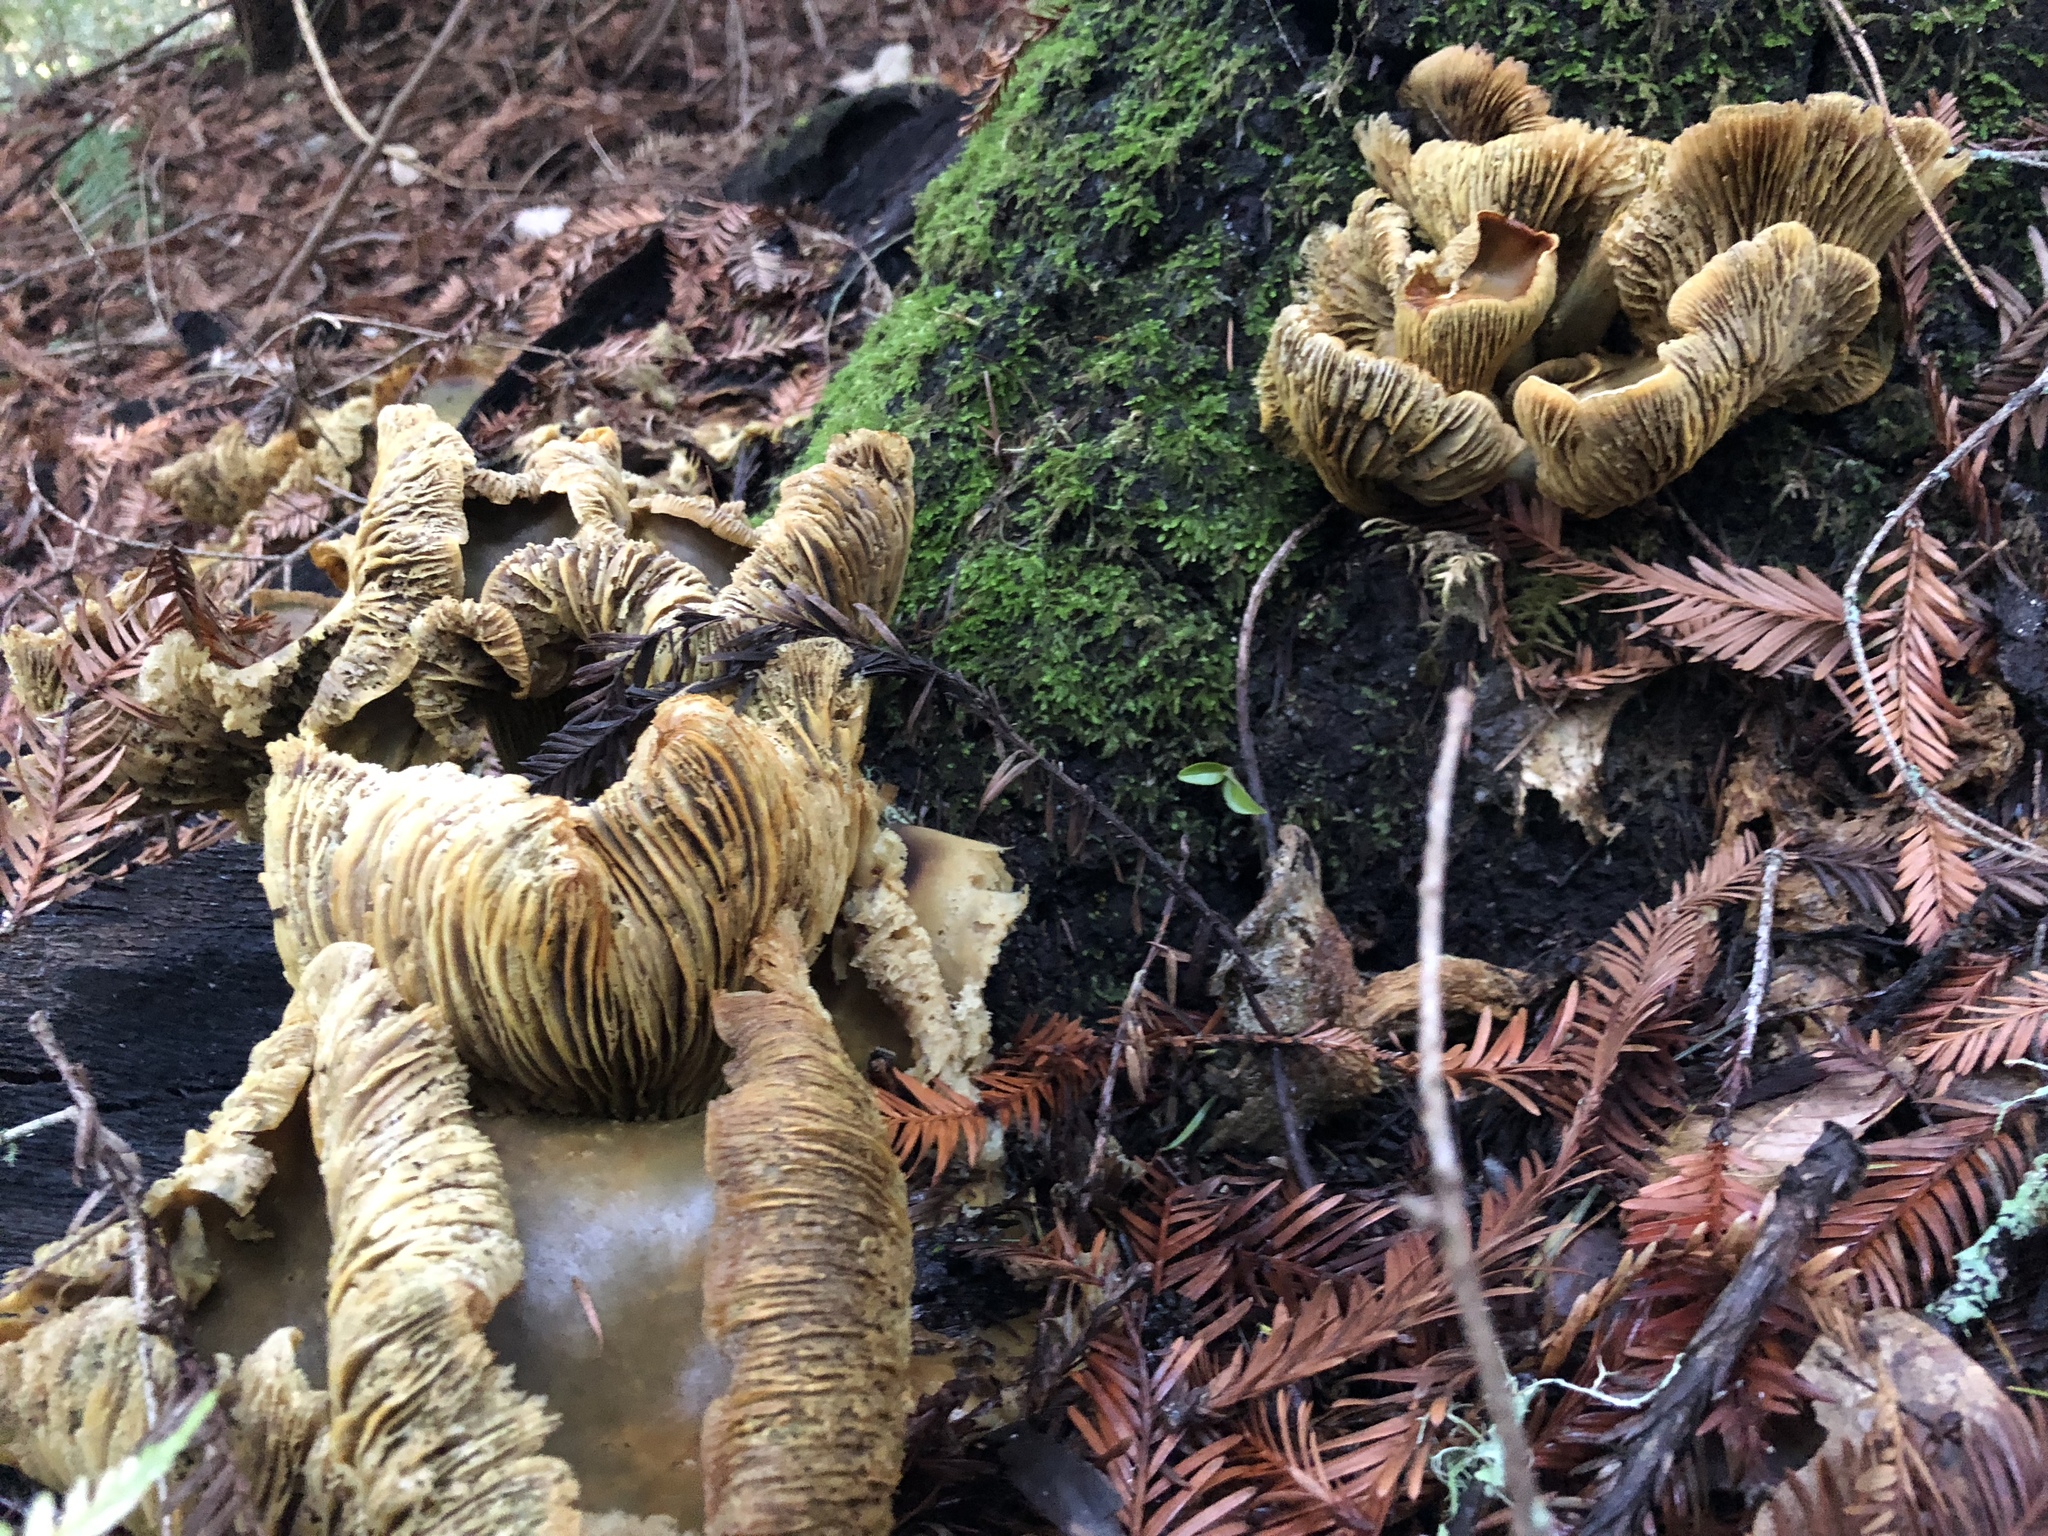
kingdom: Fungi
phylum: Basidiomycota
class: Agaricomycetes
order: Agaricales
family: Omphalotaceae
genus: Omphalotus
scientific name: Omphalotus olivascens
